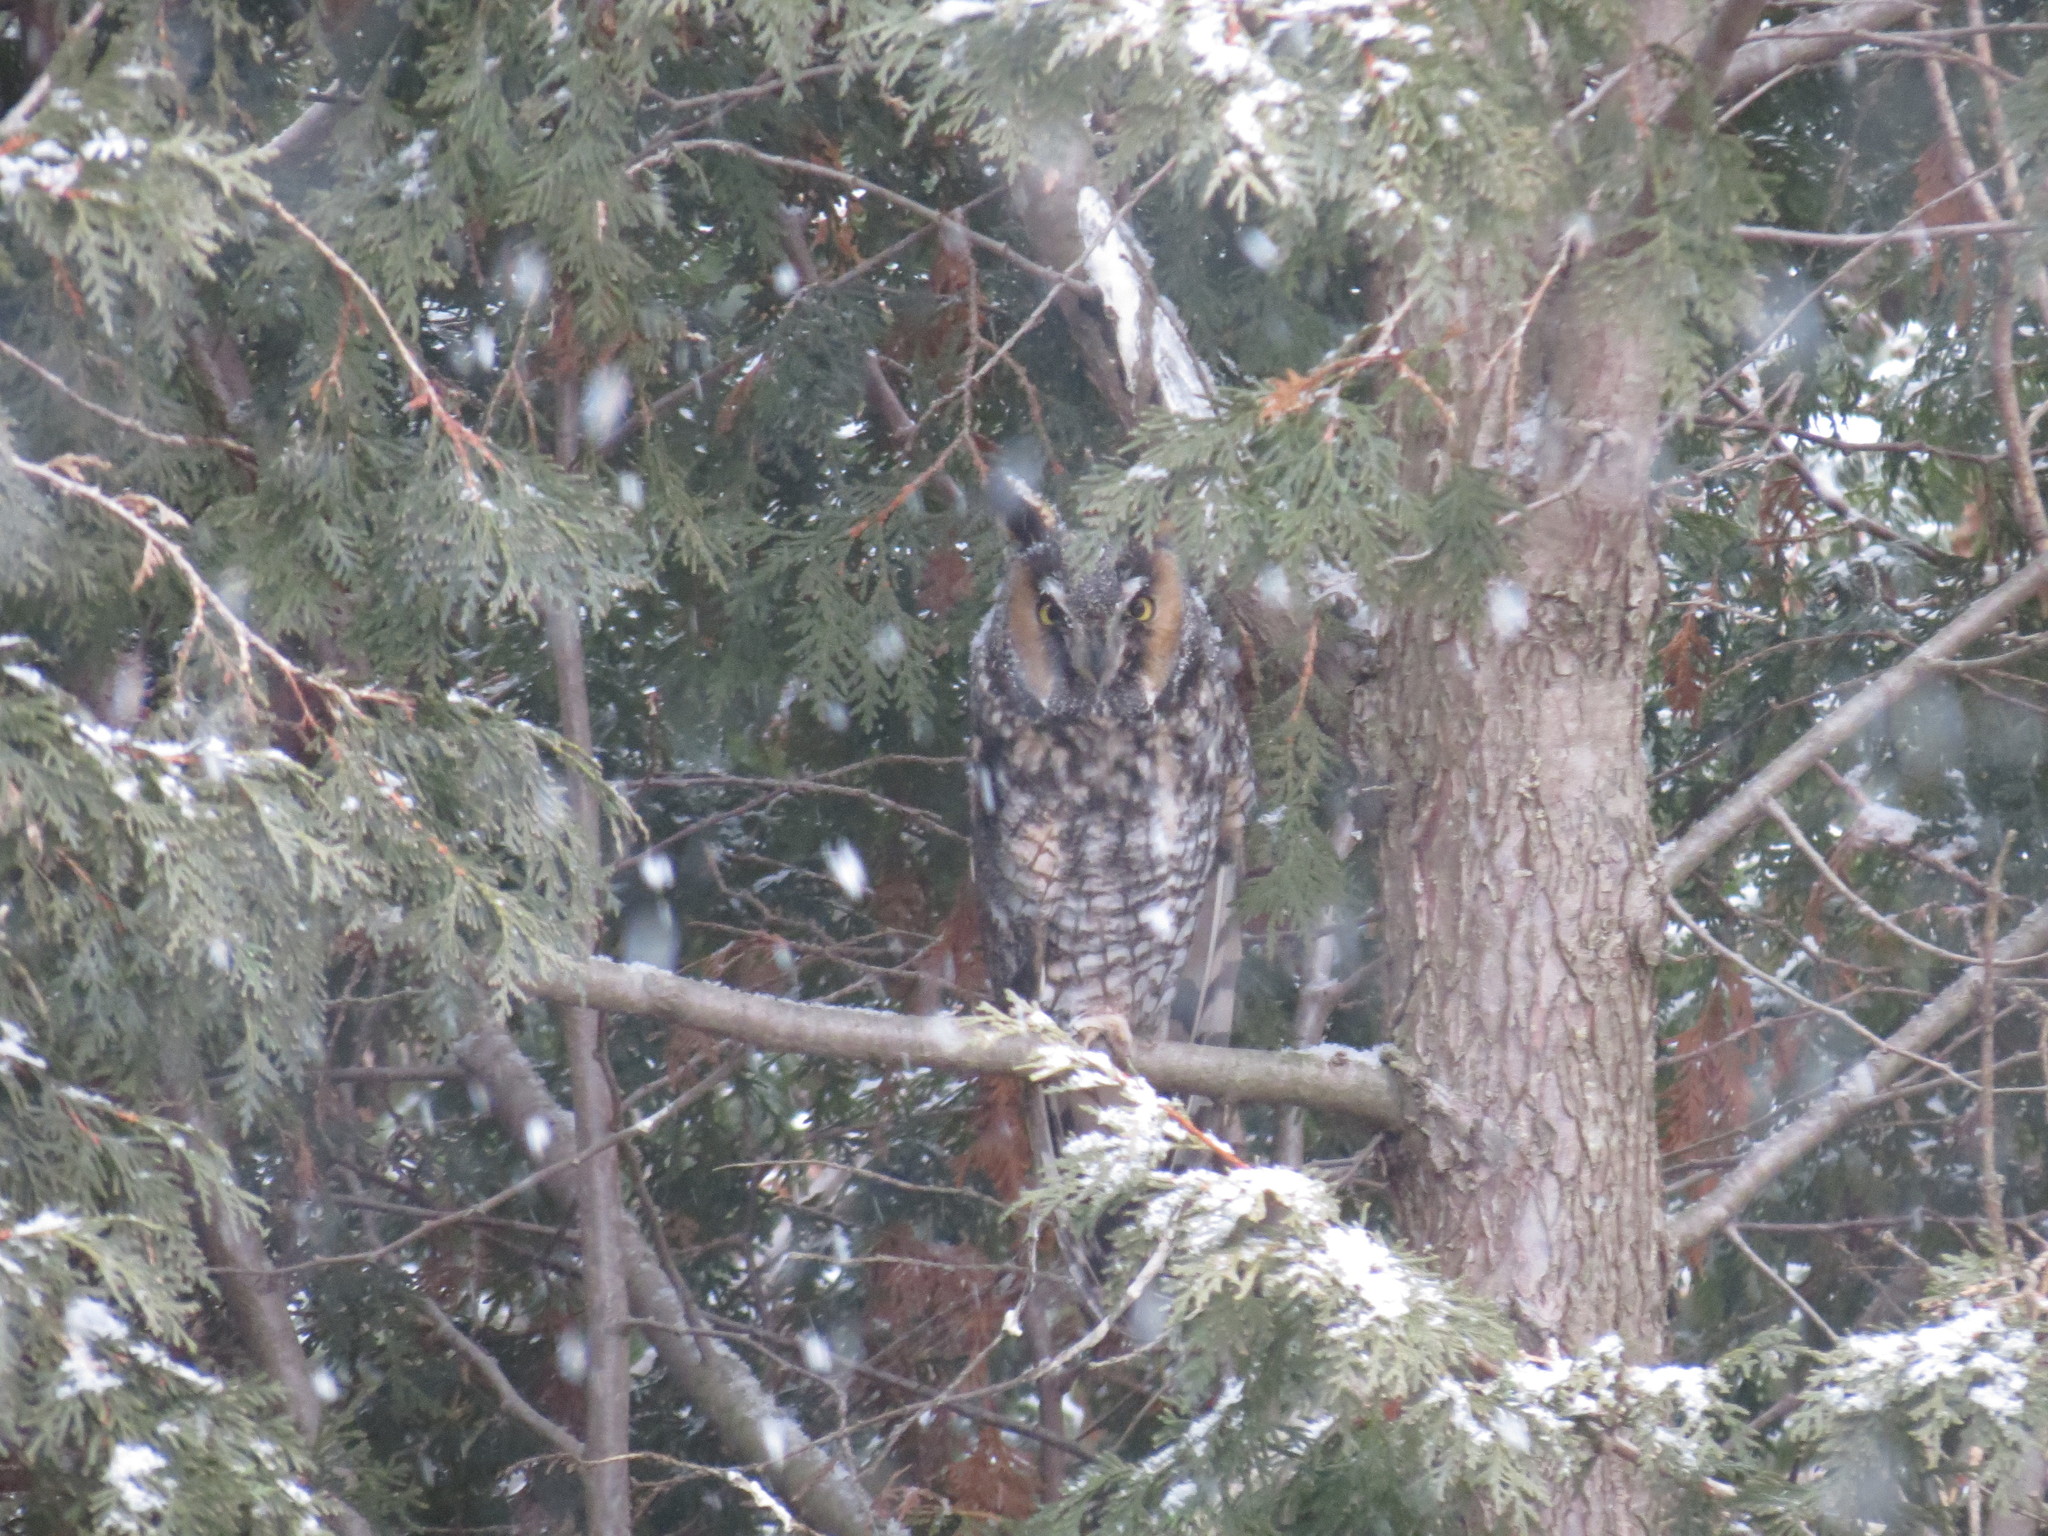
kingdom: Animalia
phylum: Chordata
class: Aves
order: Strigiformes
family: Strigidae
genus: Asio
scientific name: Asio otus
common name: Long-eared owl
